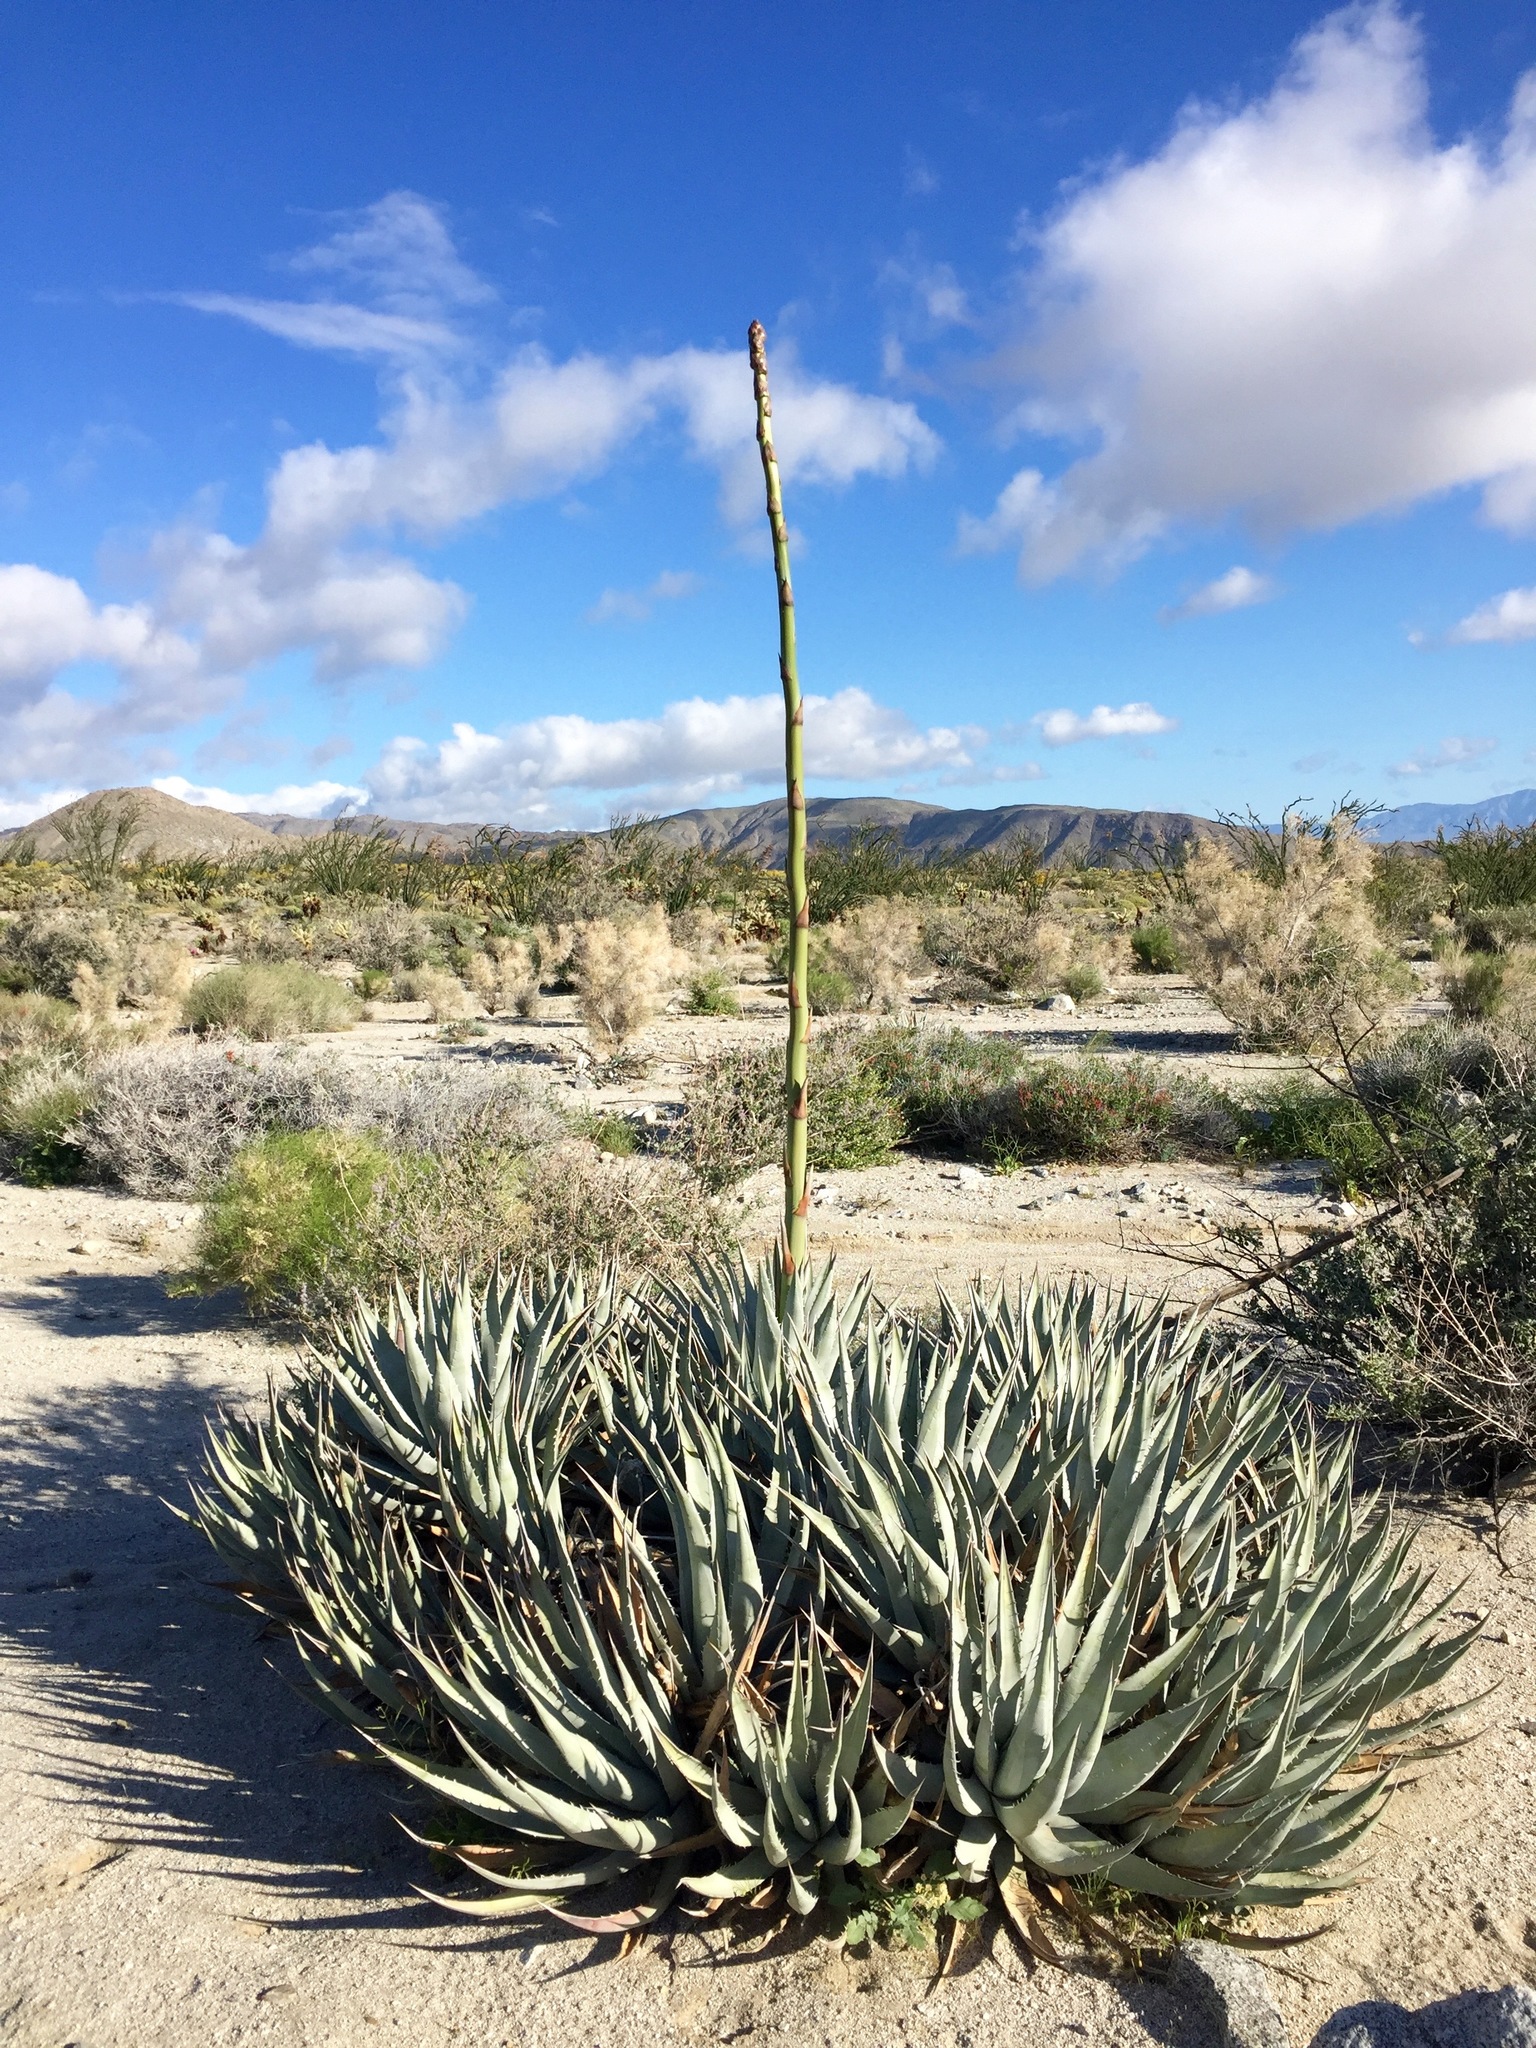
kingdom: Plantae
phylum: Tracheophyta
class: Liliopsida
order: Asparagales
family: Asparagaceae
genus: Agave
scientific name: Agave deserti
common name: Desert agave
